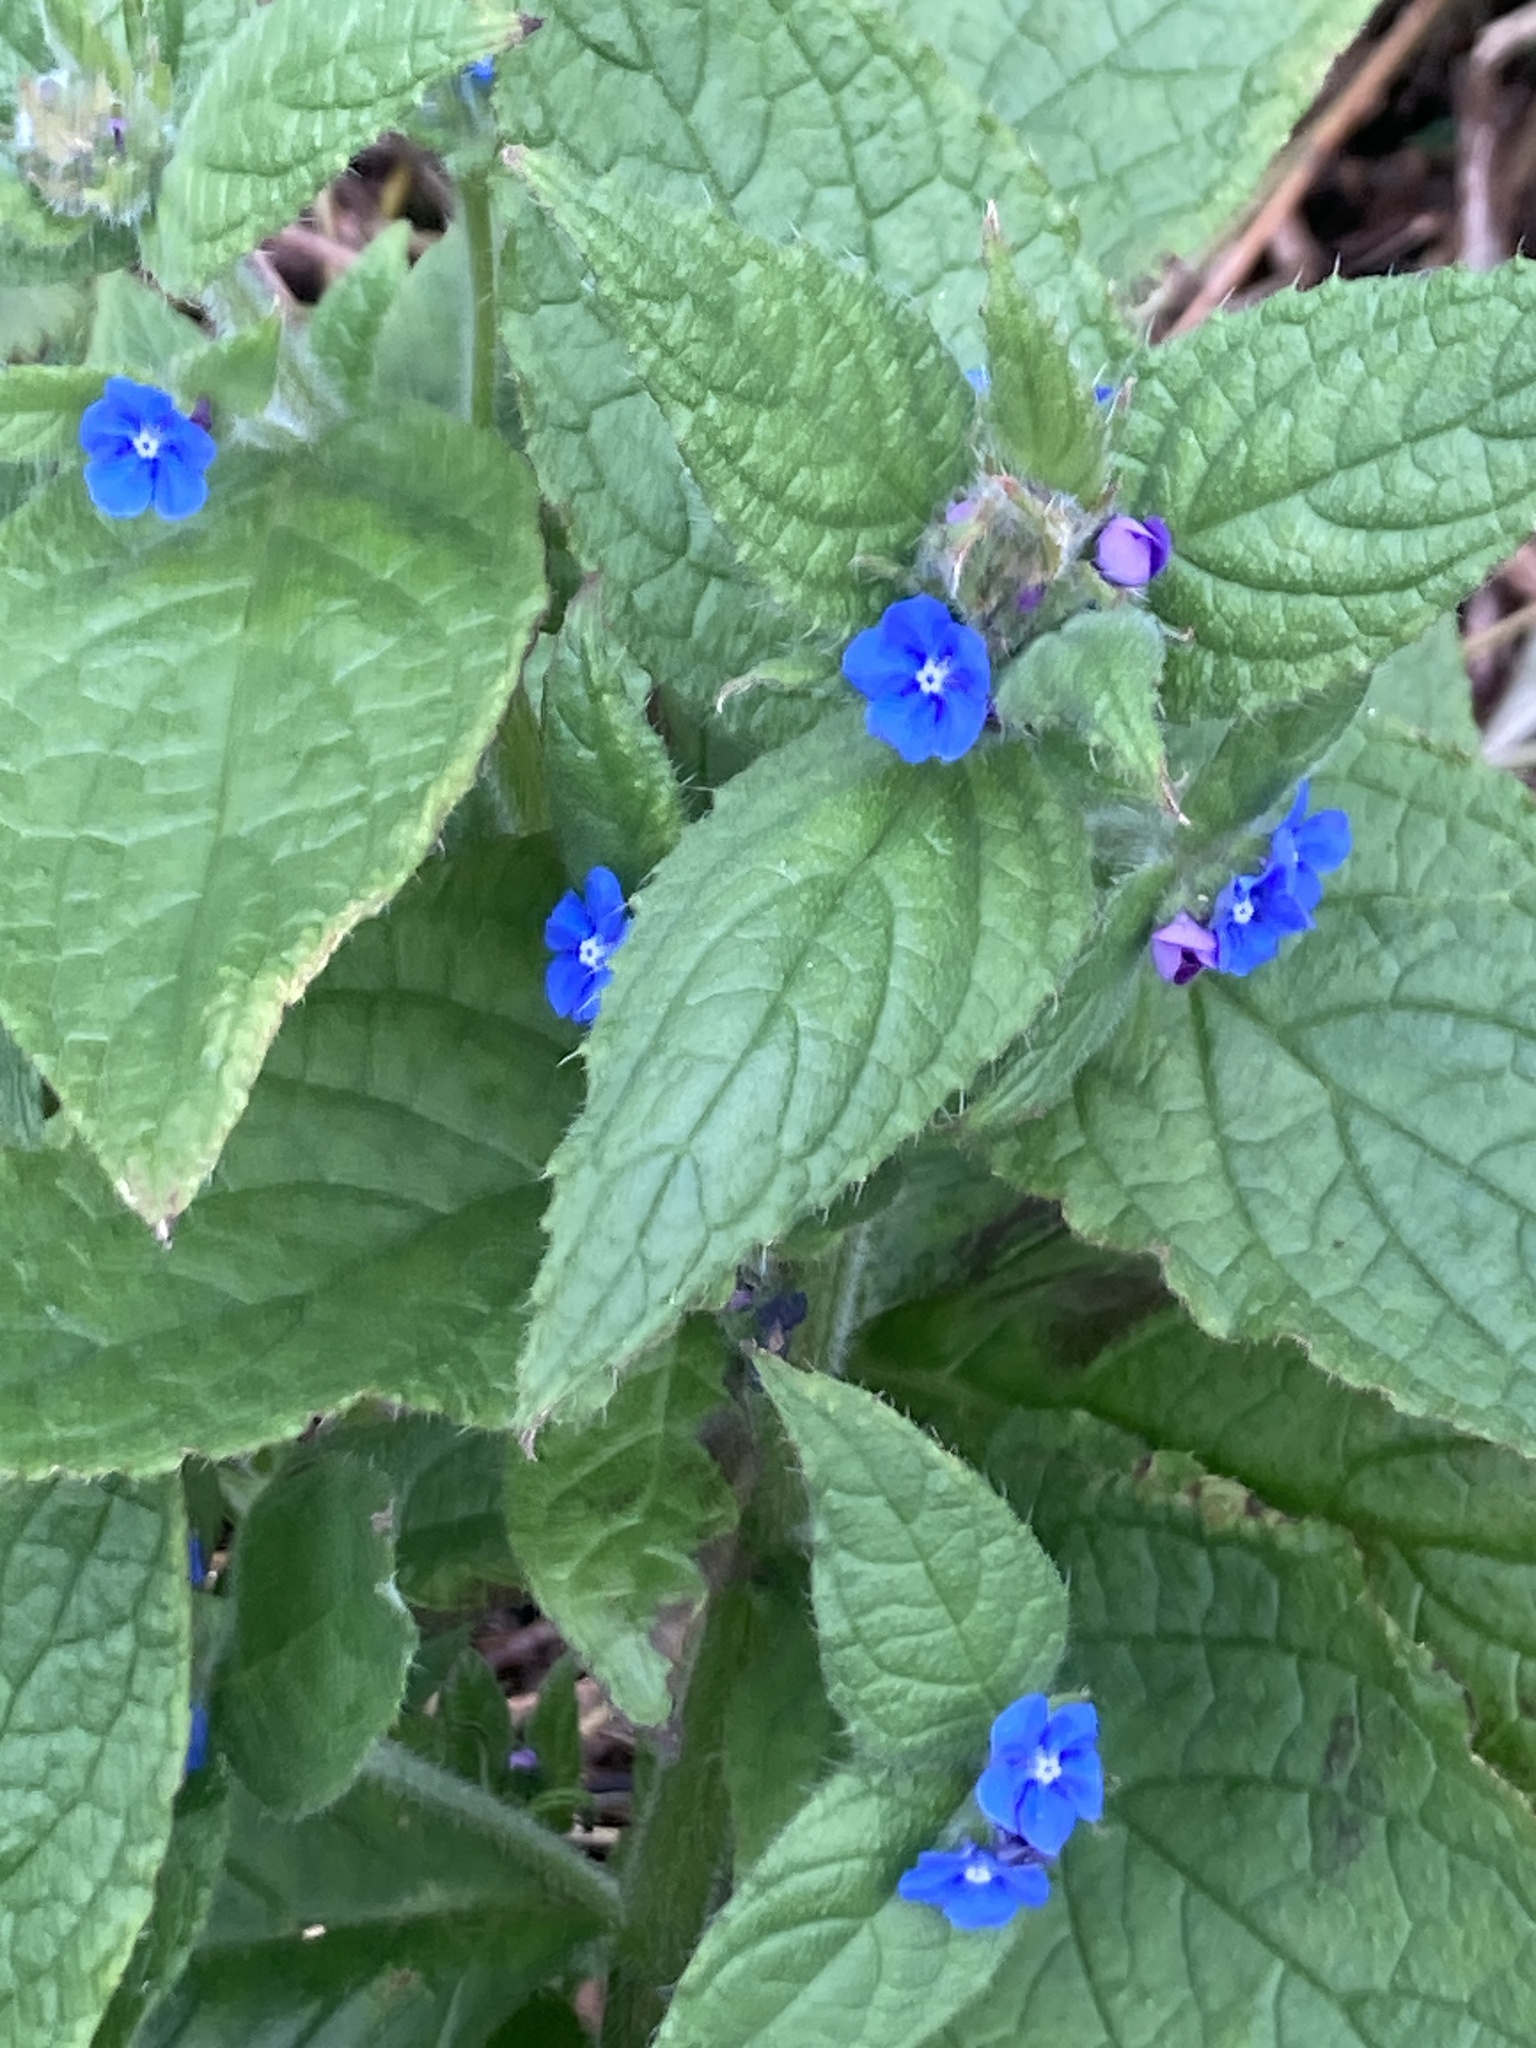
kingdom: Plantae
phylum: Tracheophyta
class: Magnoliopsida
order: Boraginales
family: Boraginaceae
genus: Pentaglottis
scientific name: Pentaglottis sempervirens
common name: Green alkanet
